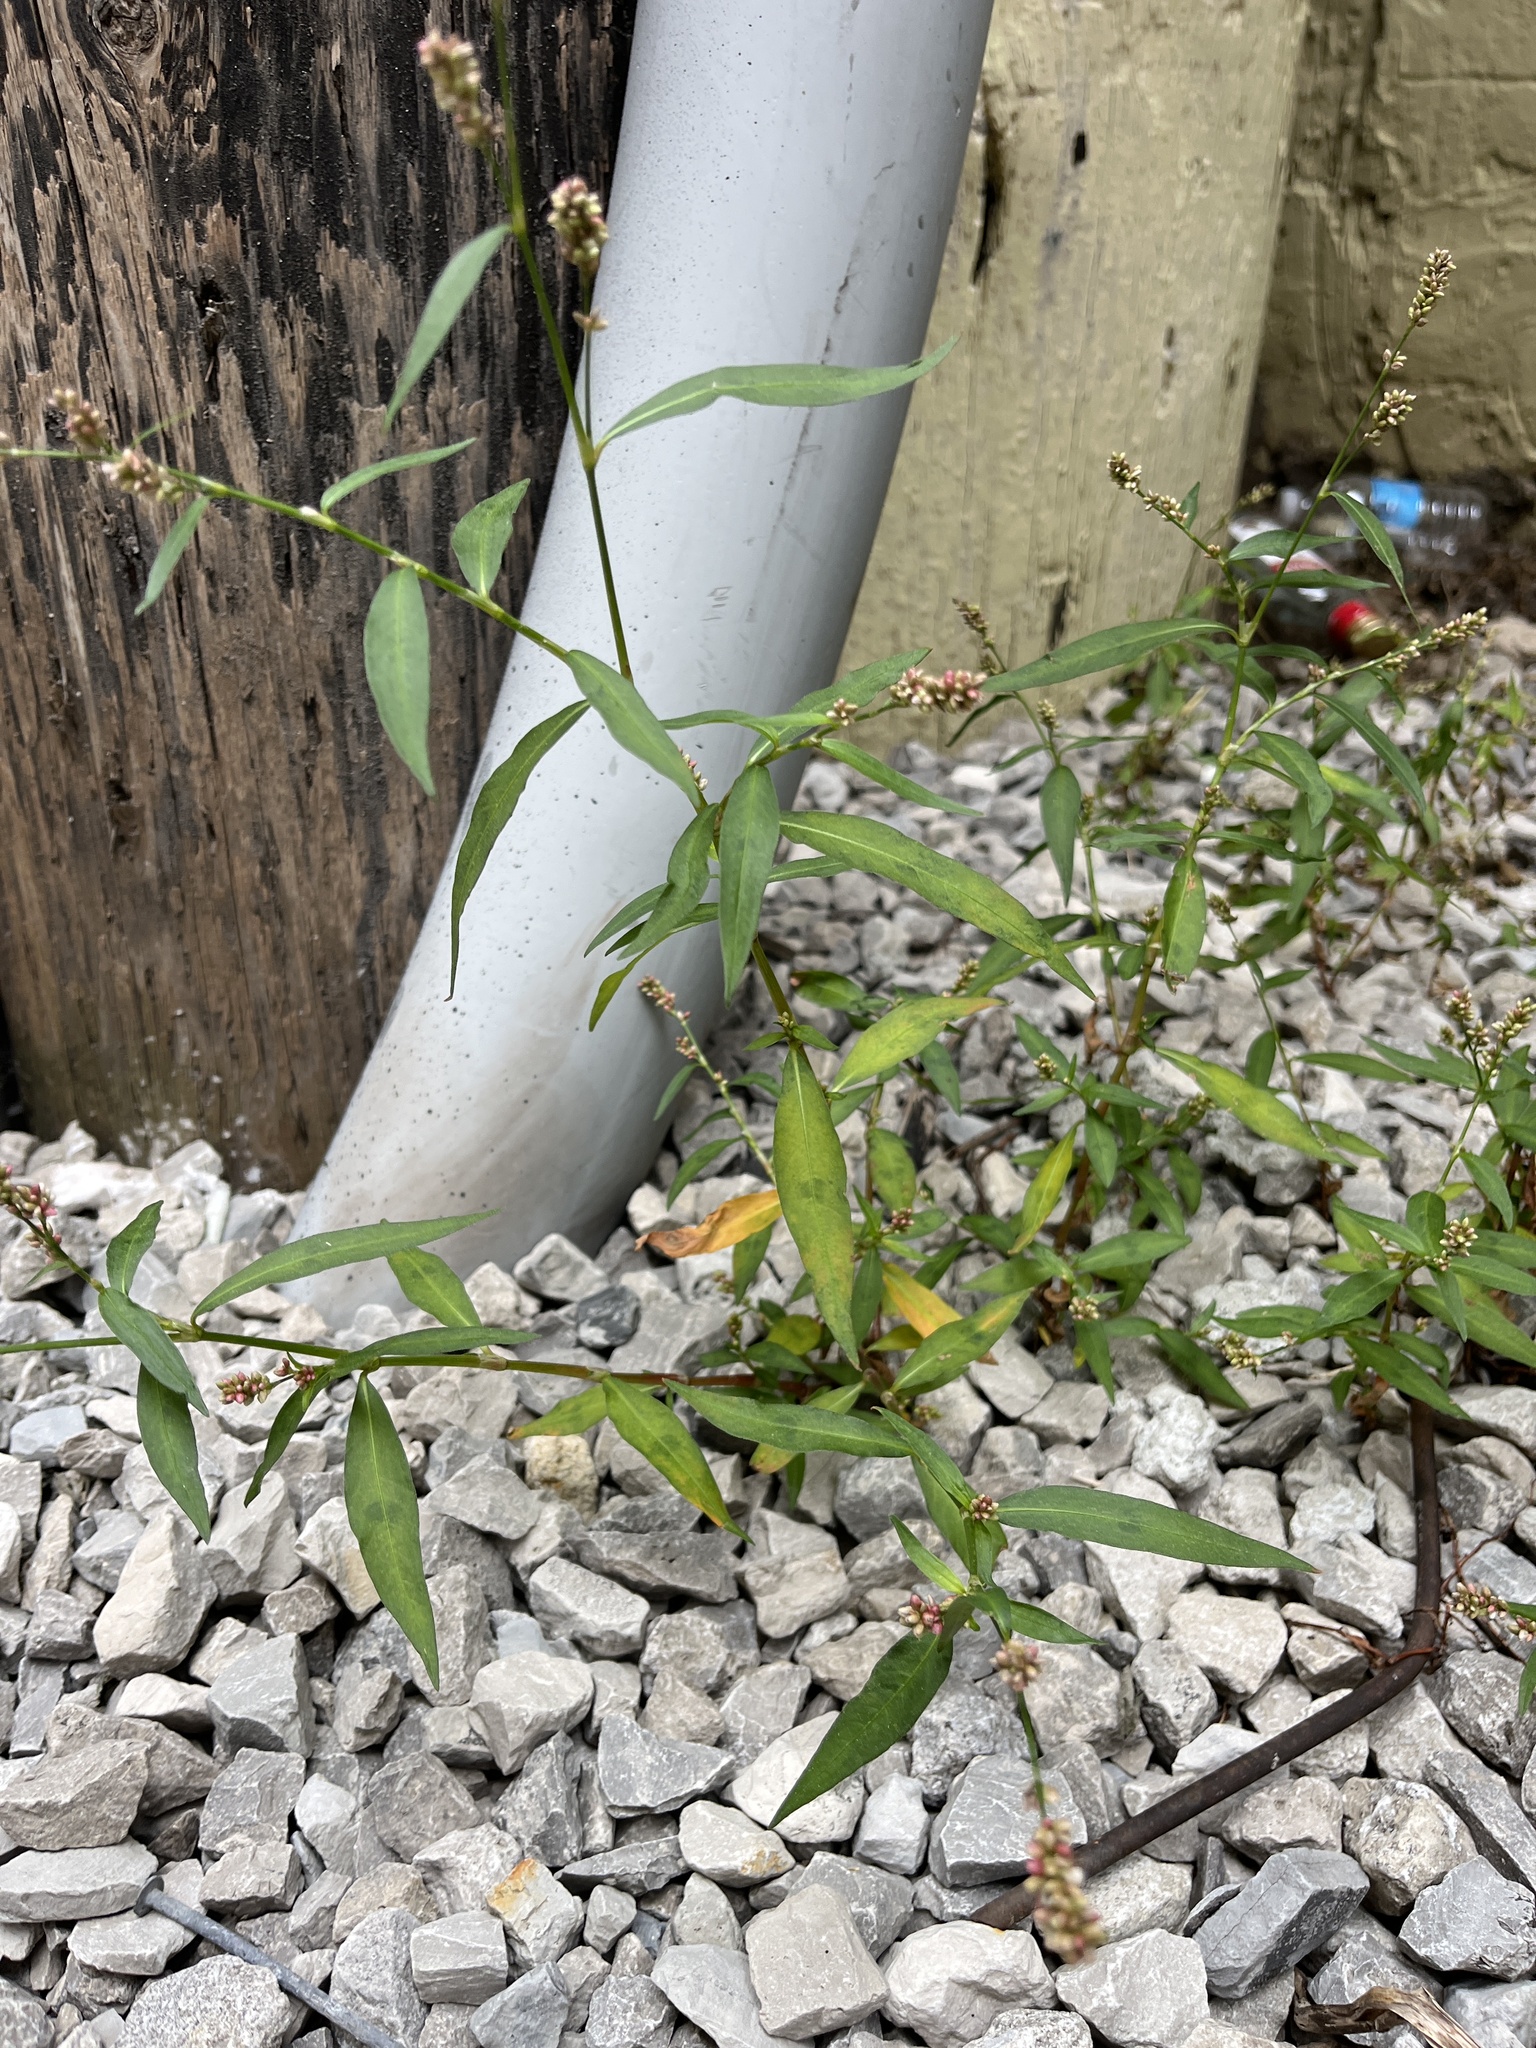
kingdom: Plantae
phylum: Tracheophyta
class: Magnoliopsida
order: Caryophyllales
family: Polygonaceae
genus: Persicaria
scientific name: Persicaria maculosa
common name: Redshank
